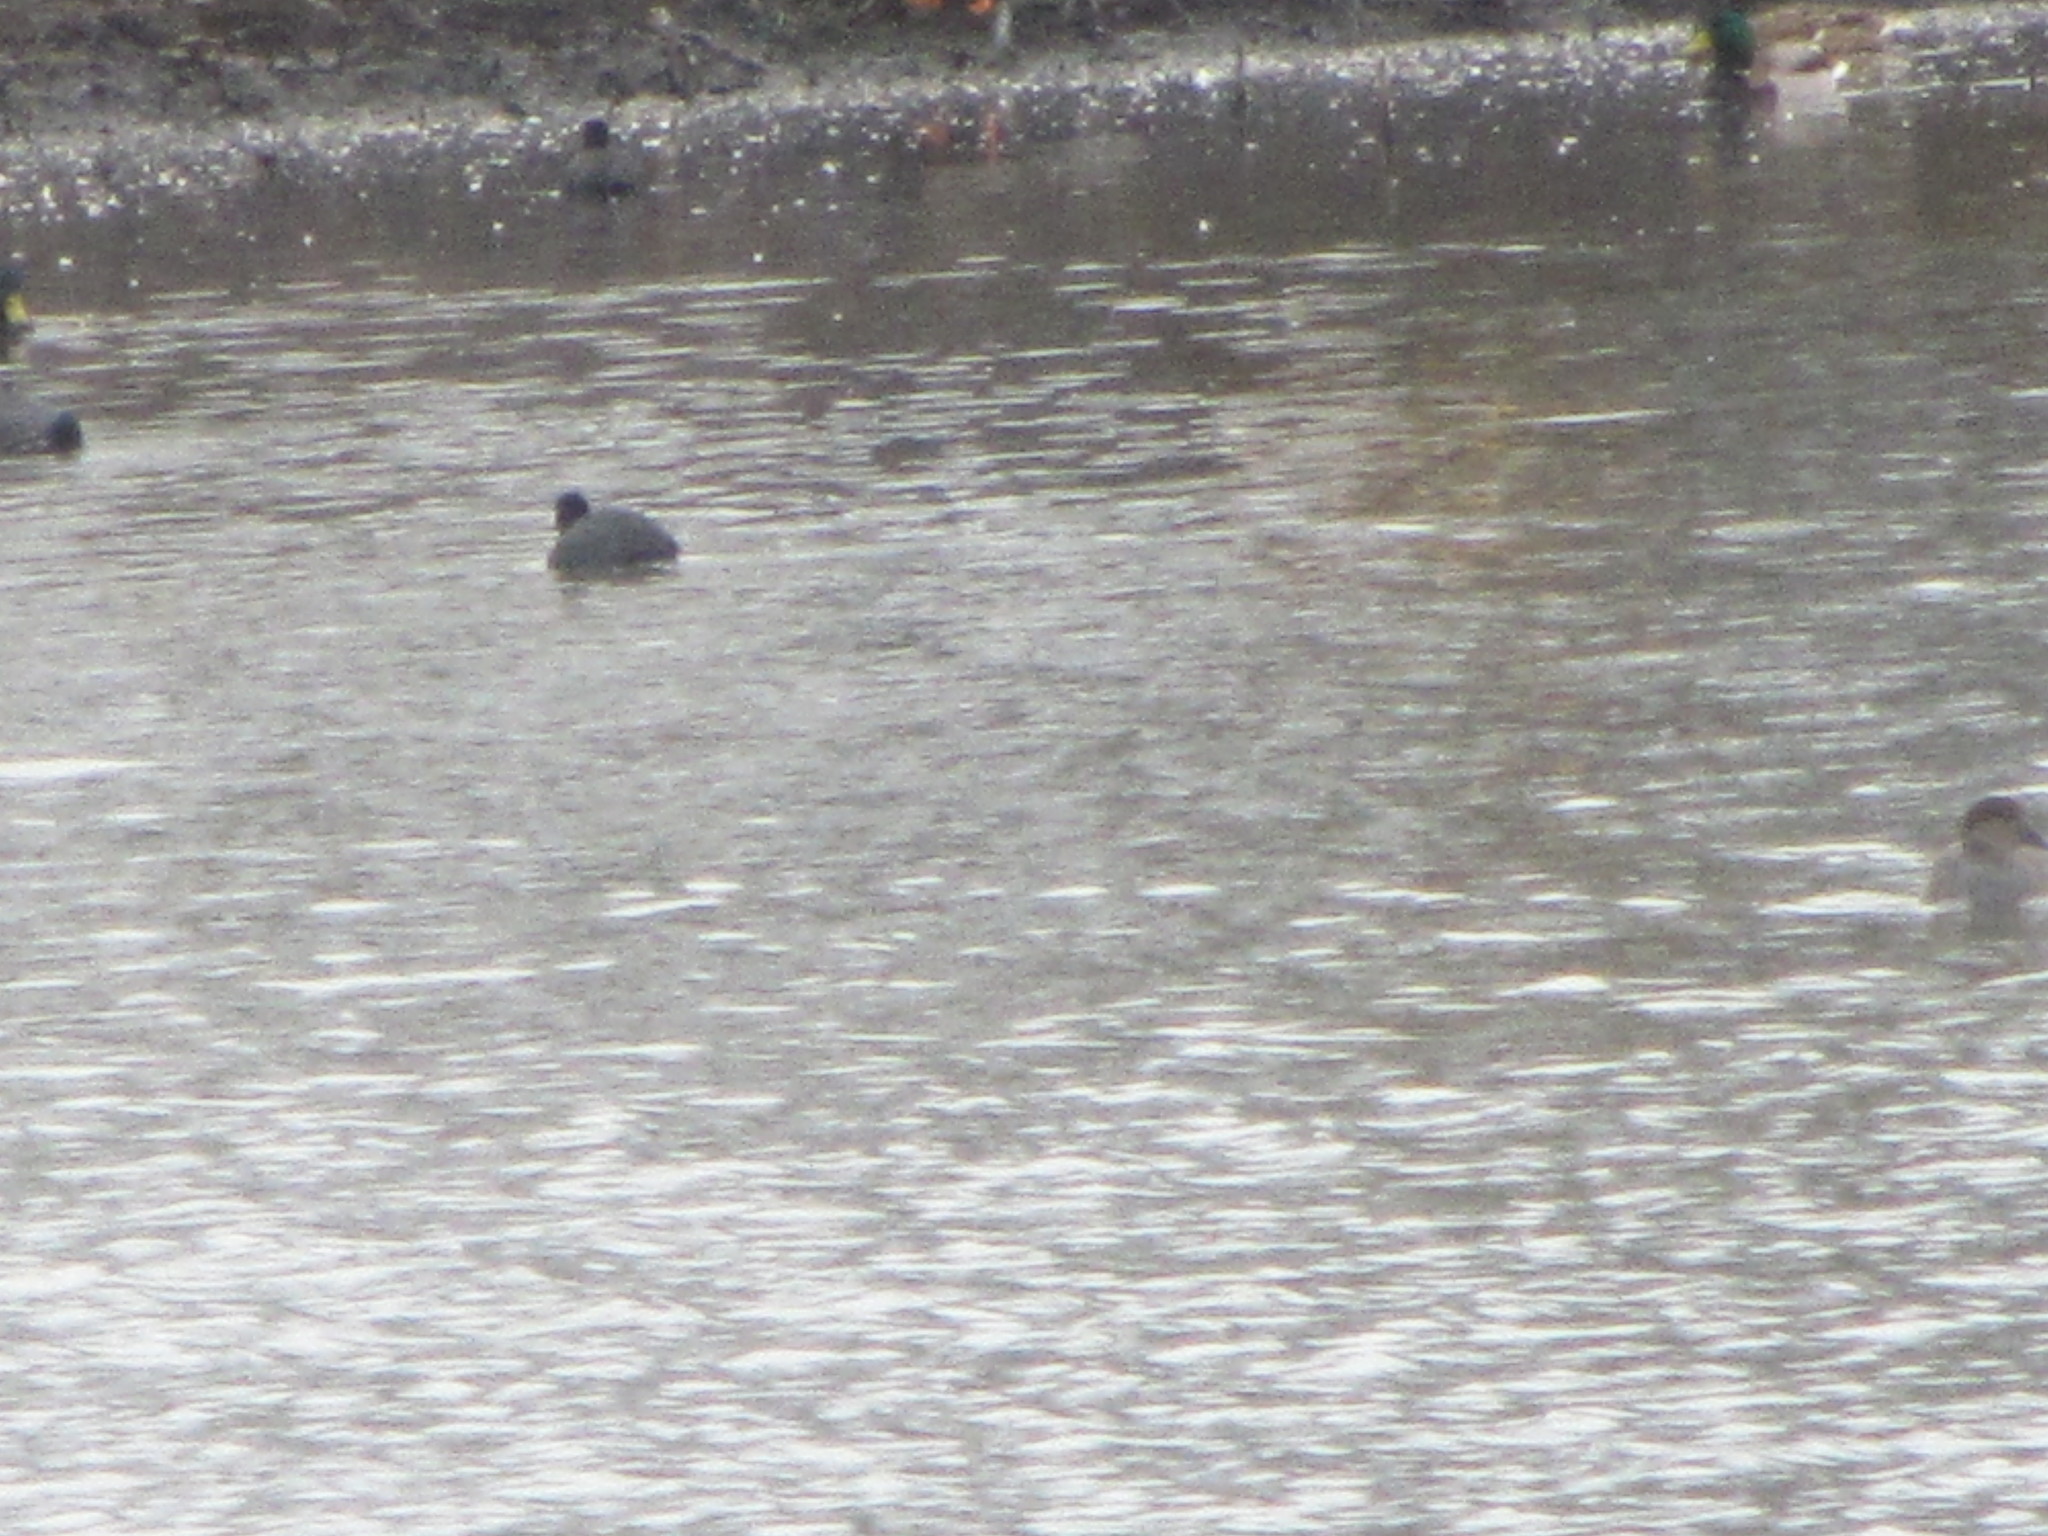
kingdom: Animalia
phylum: Chordata
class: Aves
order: Gruiformes
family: Rallidae
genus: Fulica
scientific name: Fulica americana
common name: American coot
